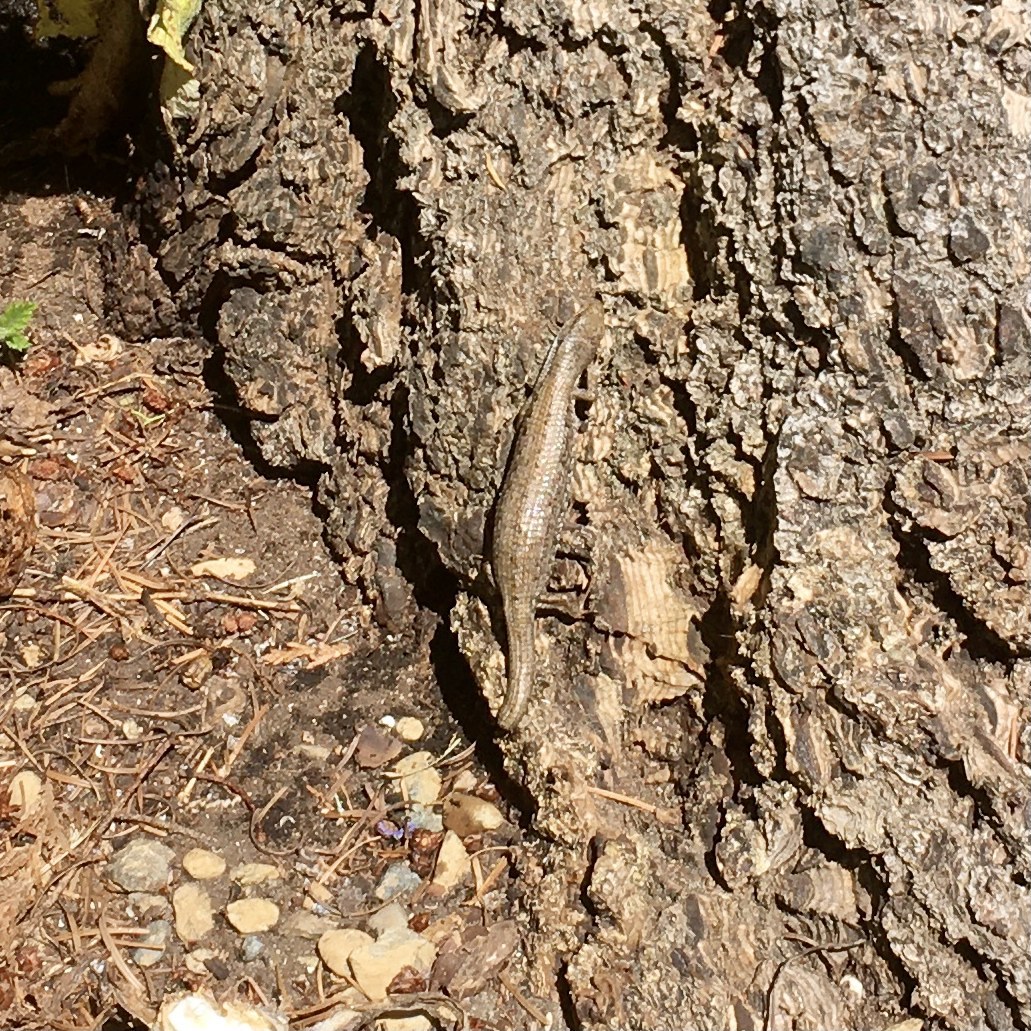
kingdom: Animalia
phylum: Chordata
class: Squamata
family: Anguidae
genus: Elgaria
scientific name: Elgaria coerulea
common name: Northern alligator lizard
